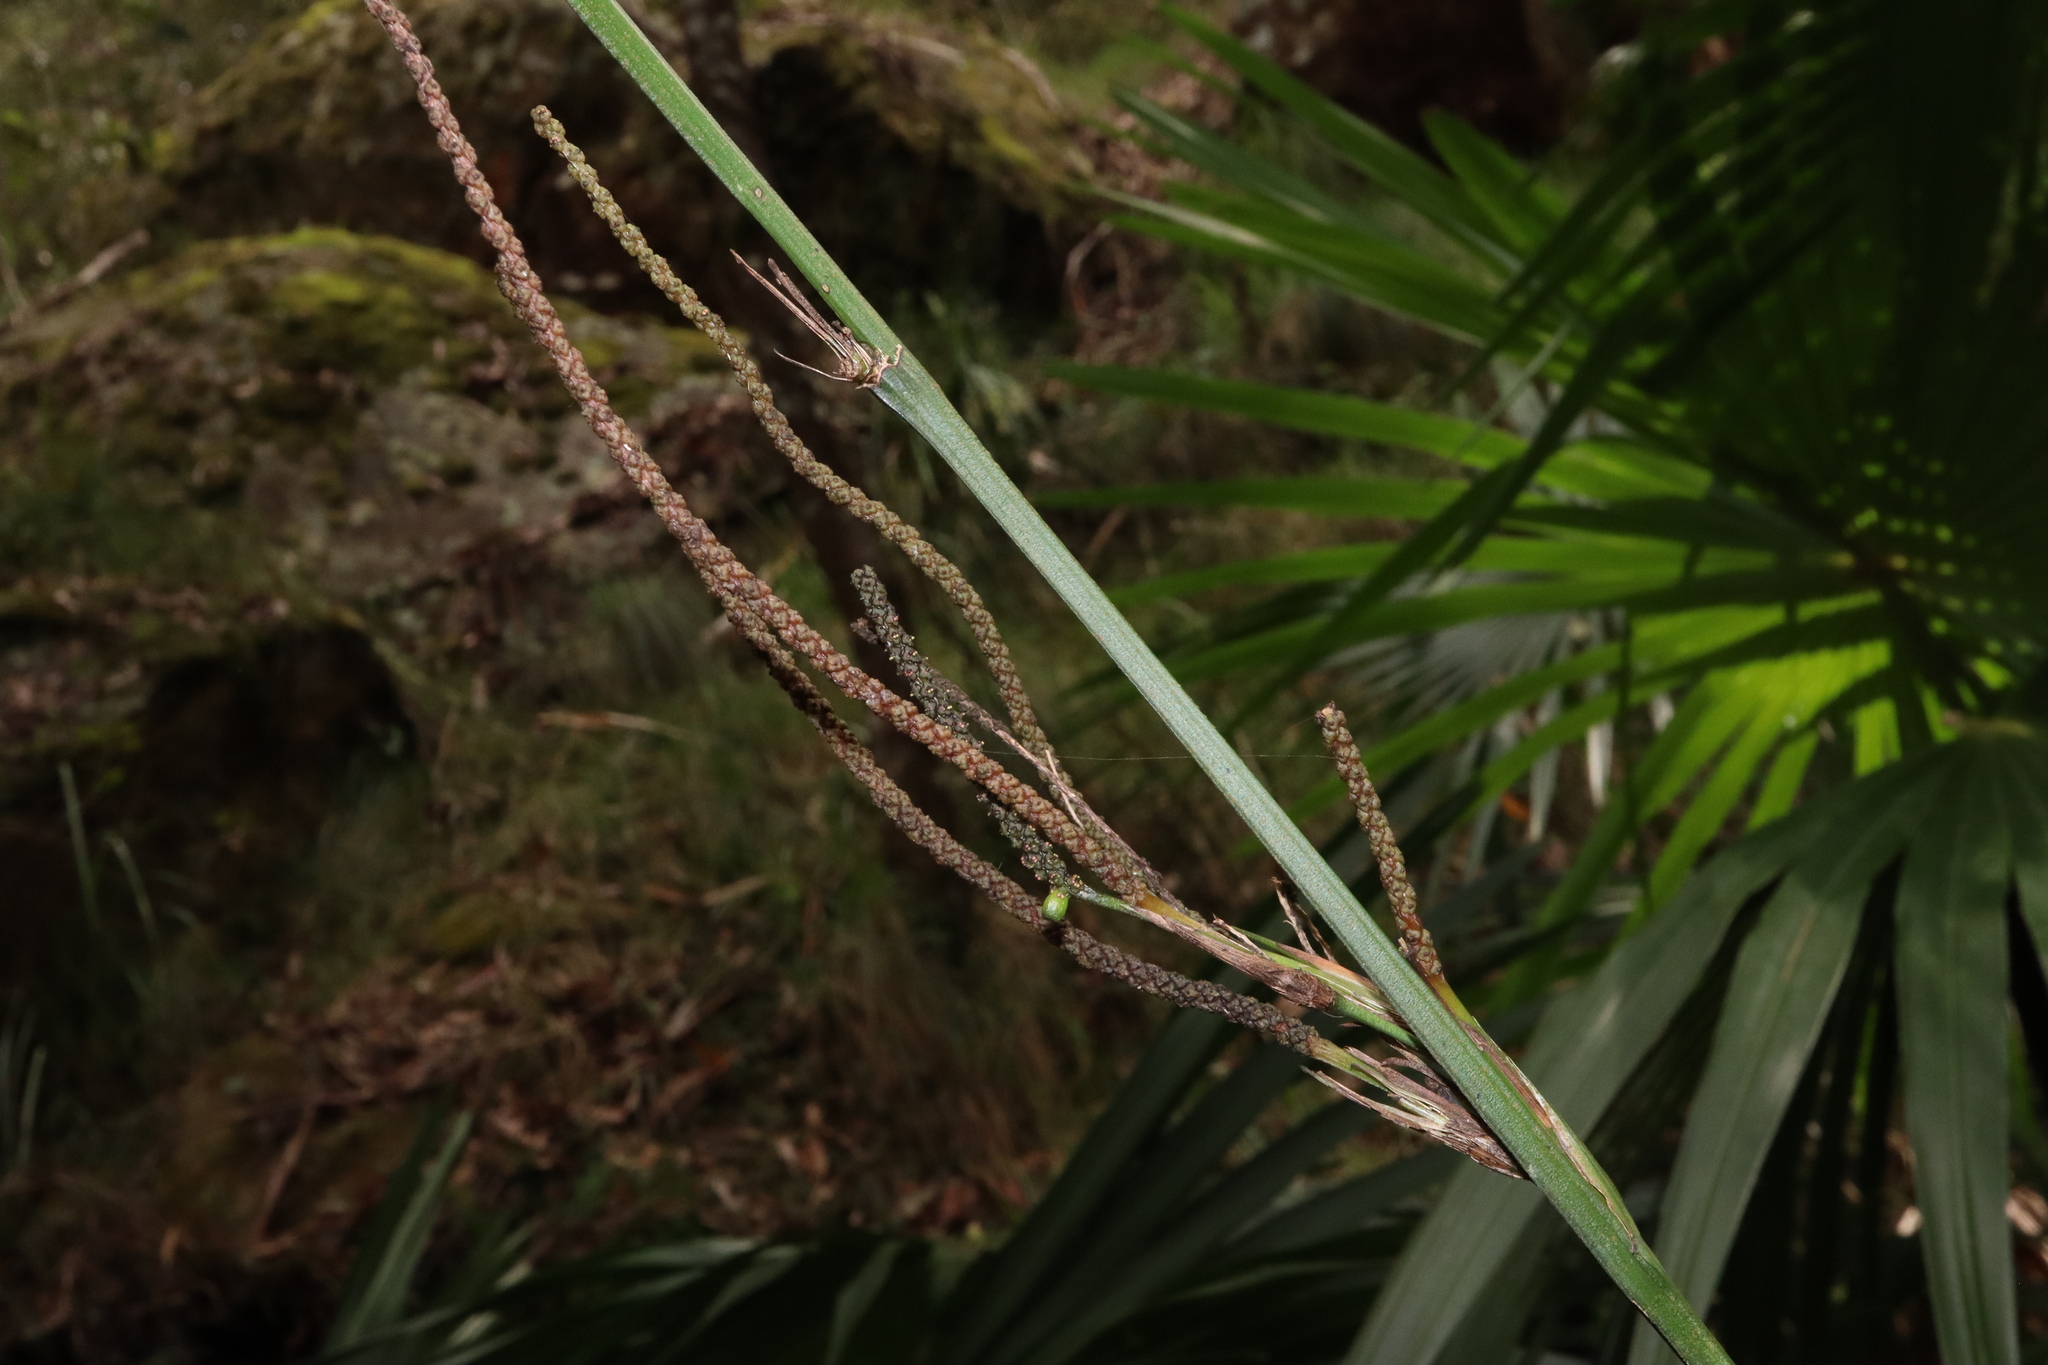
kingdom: Plantae
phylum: Tracheophyta
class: Liliopsida
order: Alismatales
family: Araceae
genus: Gymnostachys
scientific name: Gymnostachys anceps
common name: Settler's-flax
